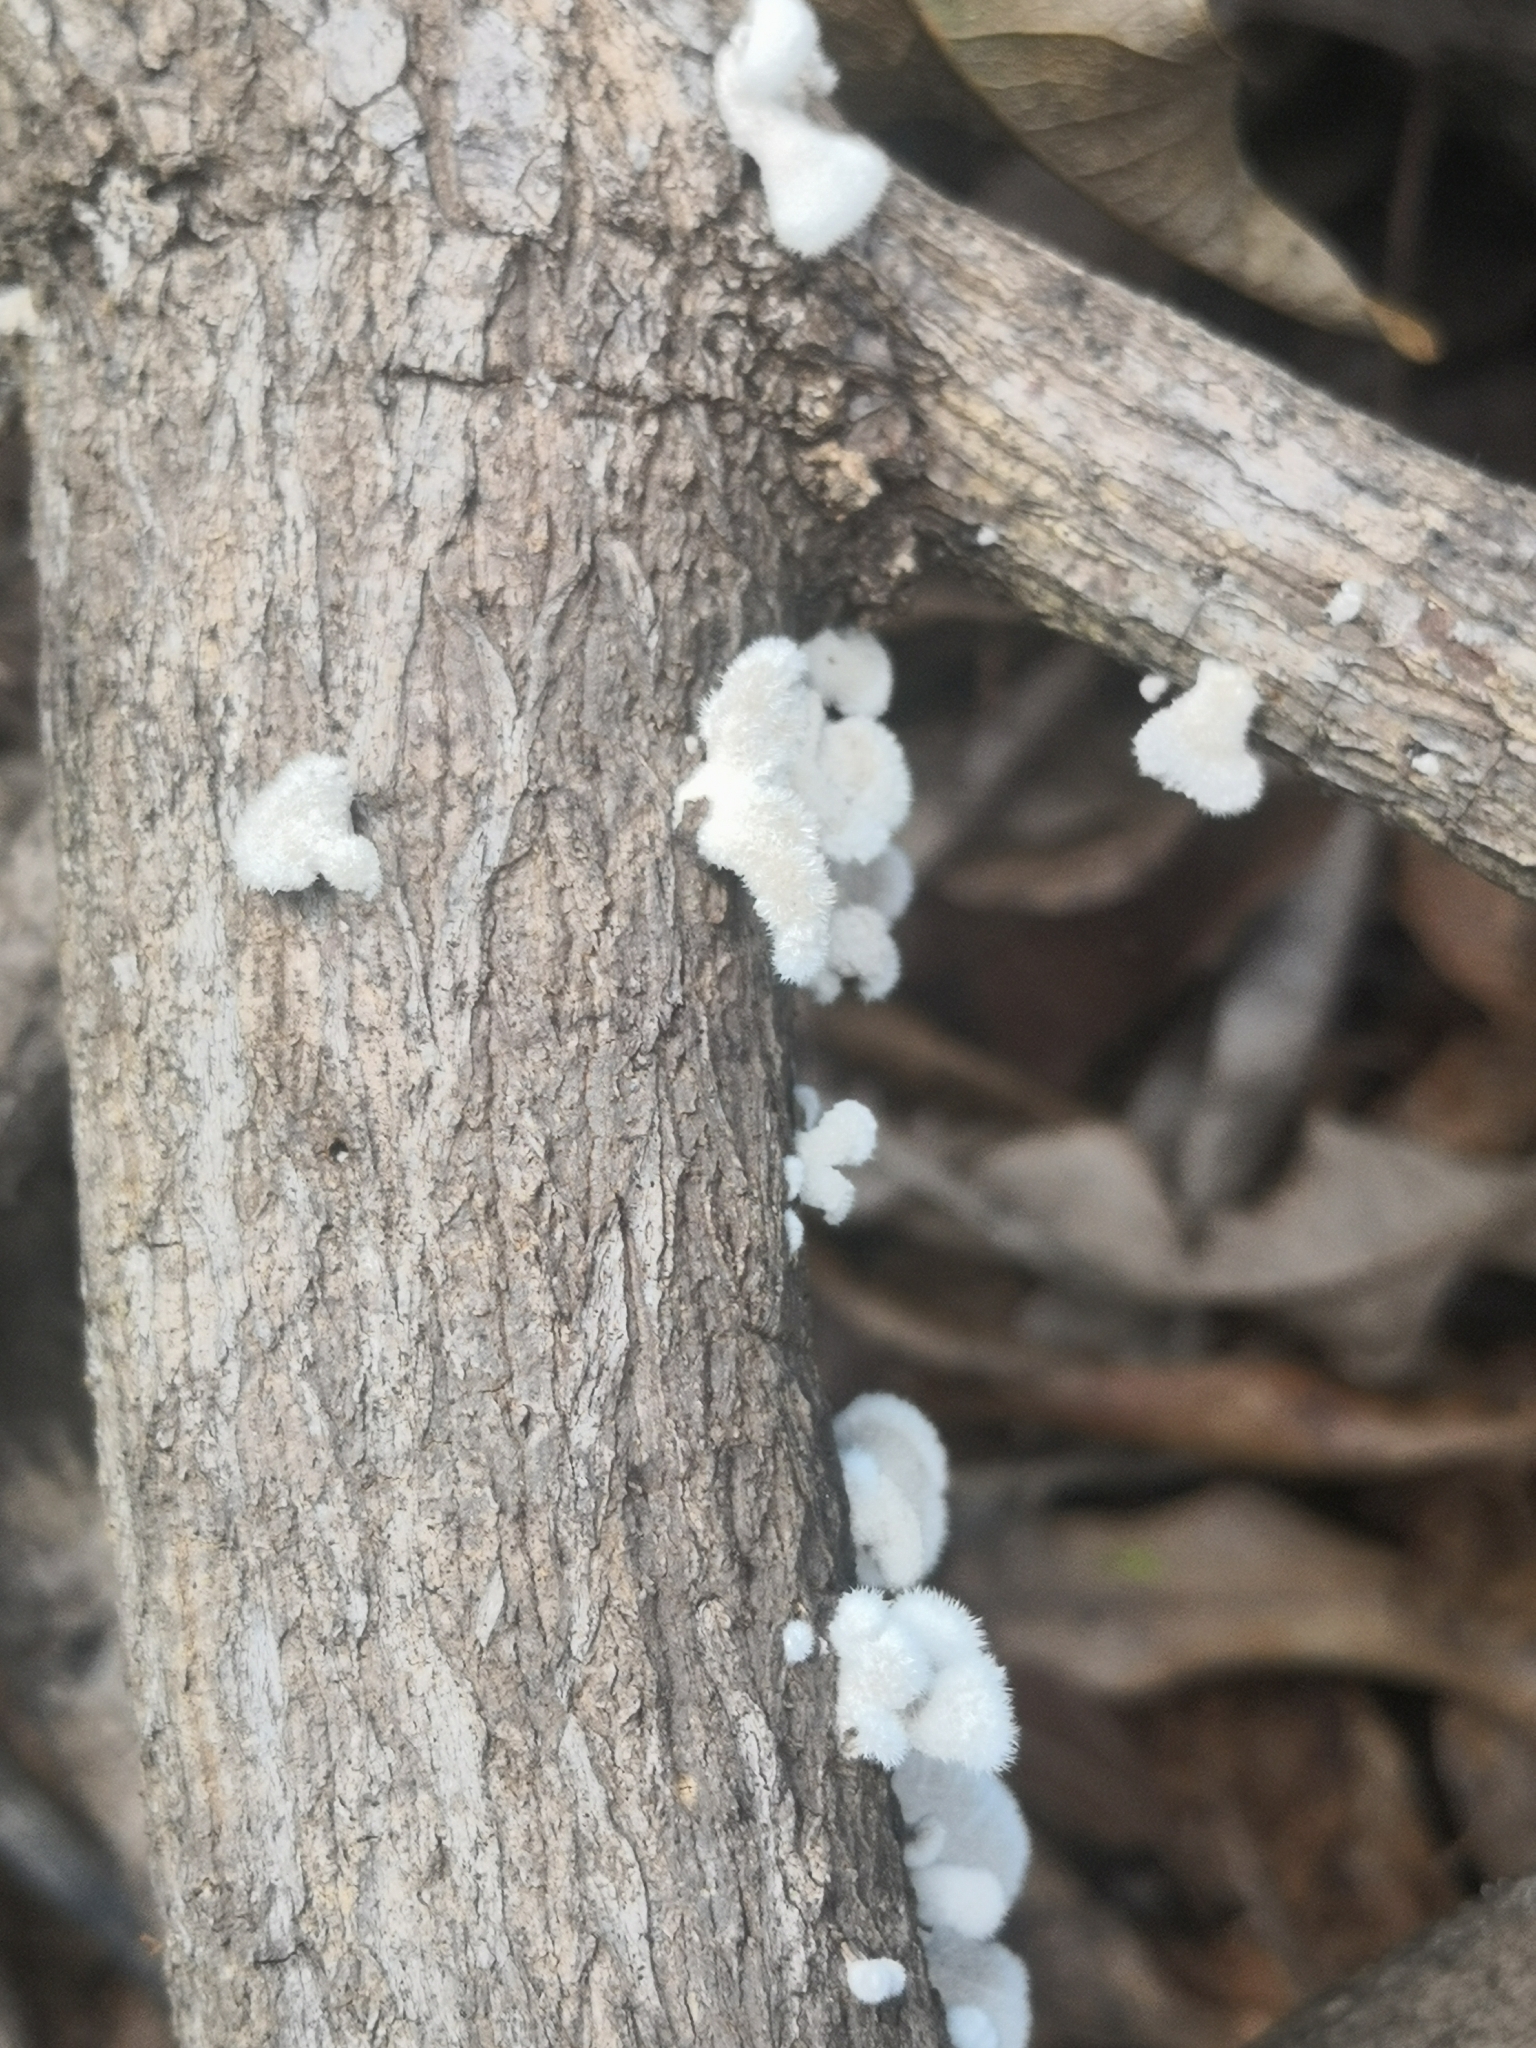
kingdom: Fungi
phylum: Basidiomycota
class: Agaricomycetes
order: Agaricales
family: Schizophyllaceae
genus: Schizophyllum
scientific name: Schizophyllum commune
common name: Common porecrust
